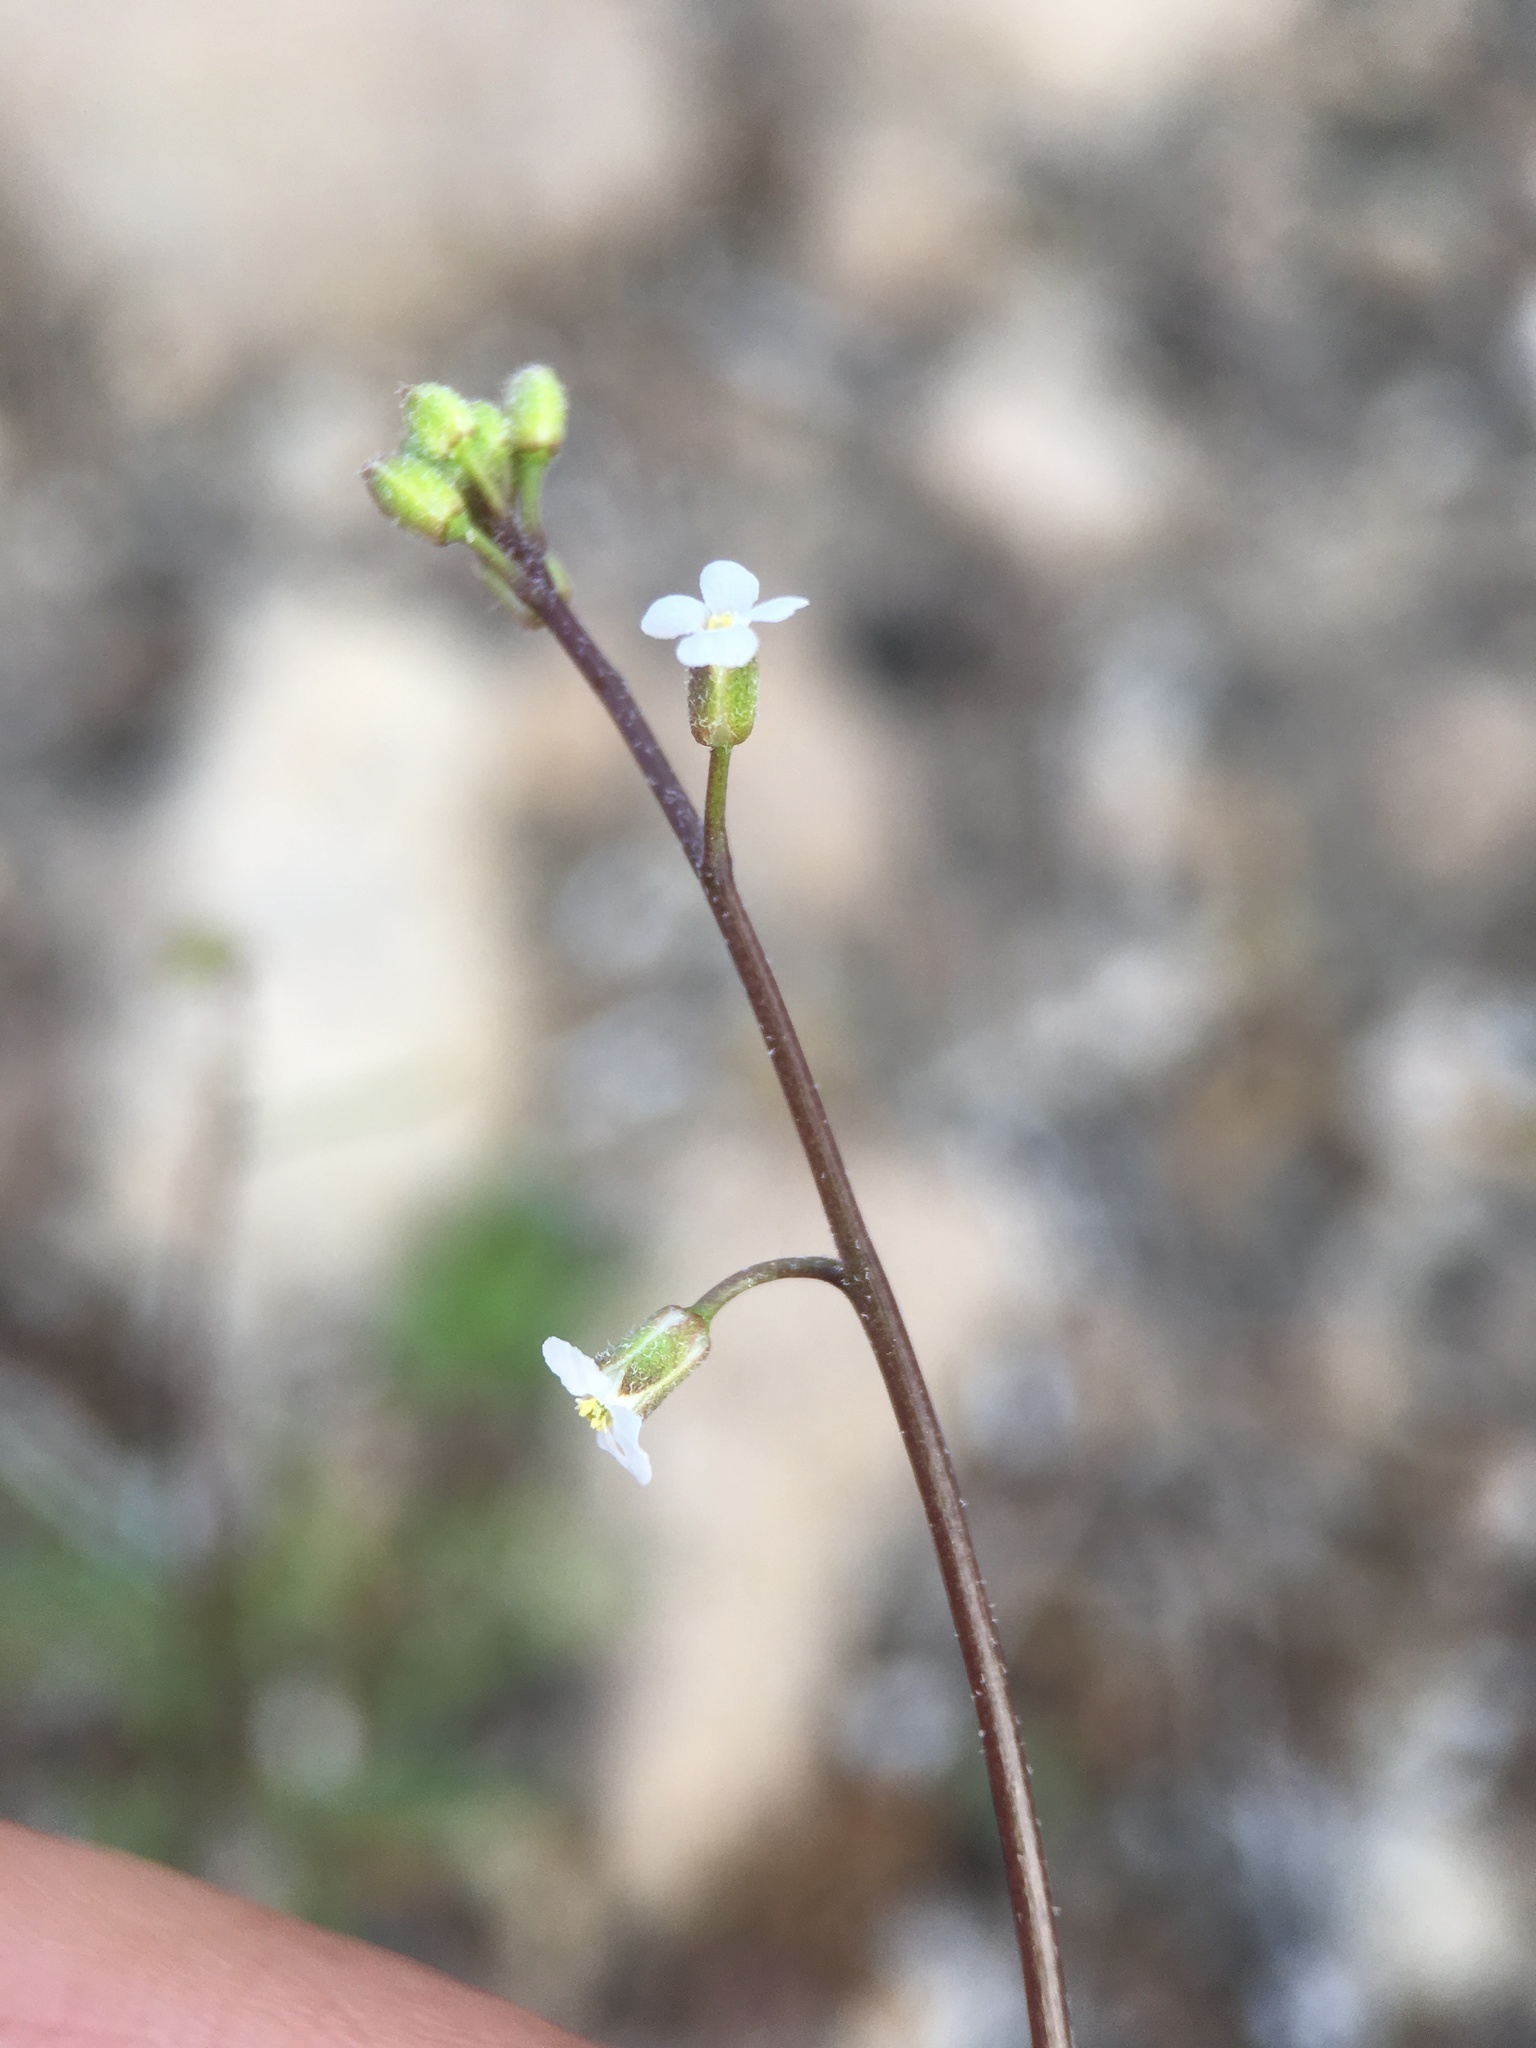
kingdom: Plantae
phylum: Tracheophyta
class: Magnoliopsida
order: Brassicales
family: Brassicaceae
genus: Sibara
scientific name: Sibara deserti
